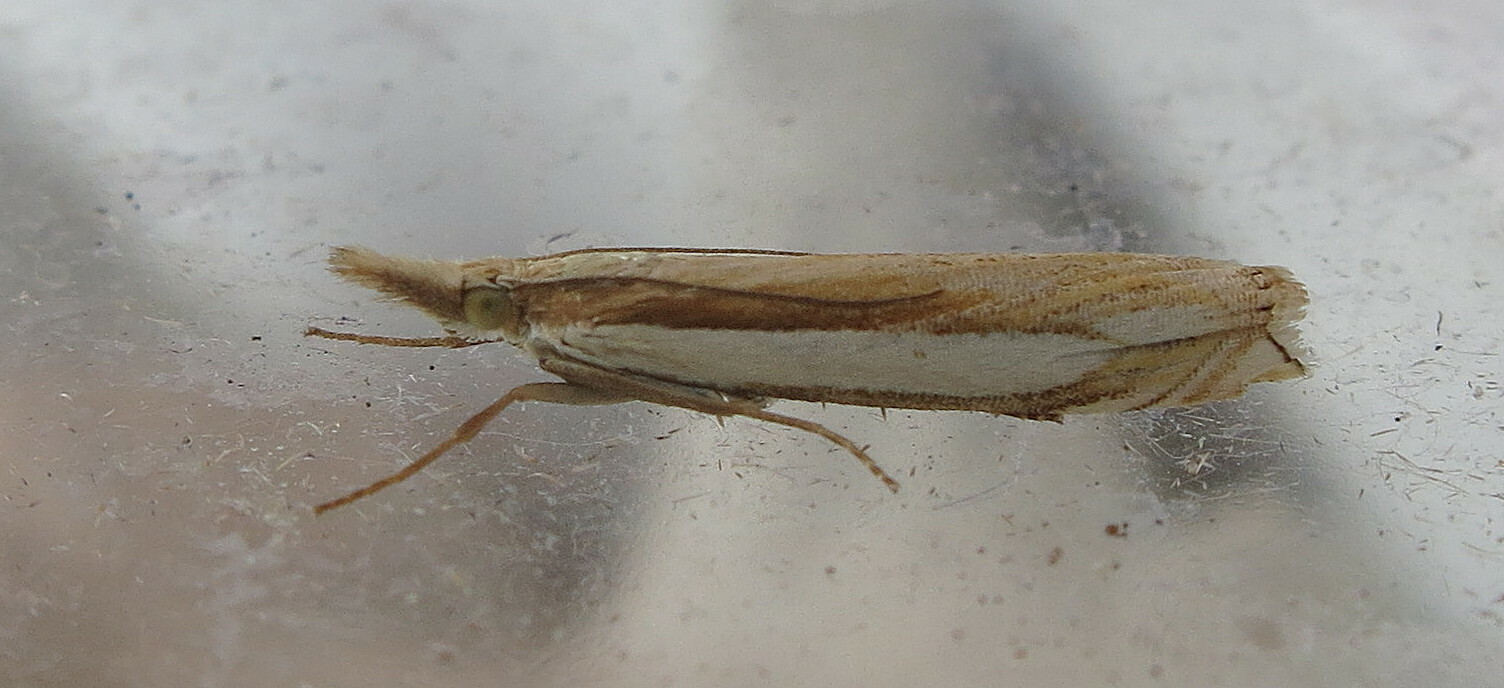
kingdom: Animalia
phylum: Arthropoda
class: Insecta
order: Lepidoptera
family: Crambidae
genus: Crambus
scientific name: Crambus pascuella
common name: Inlaid grass-veneer
